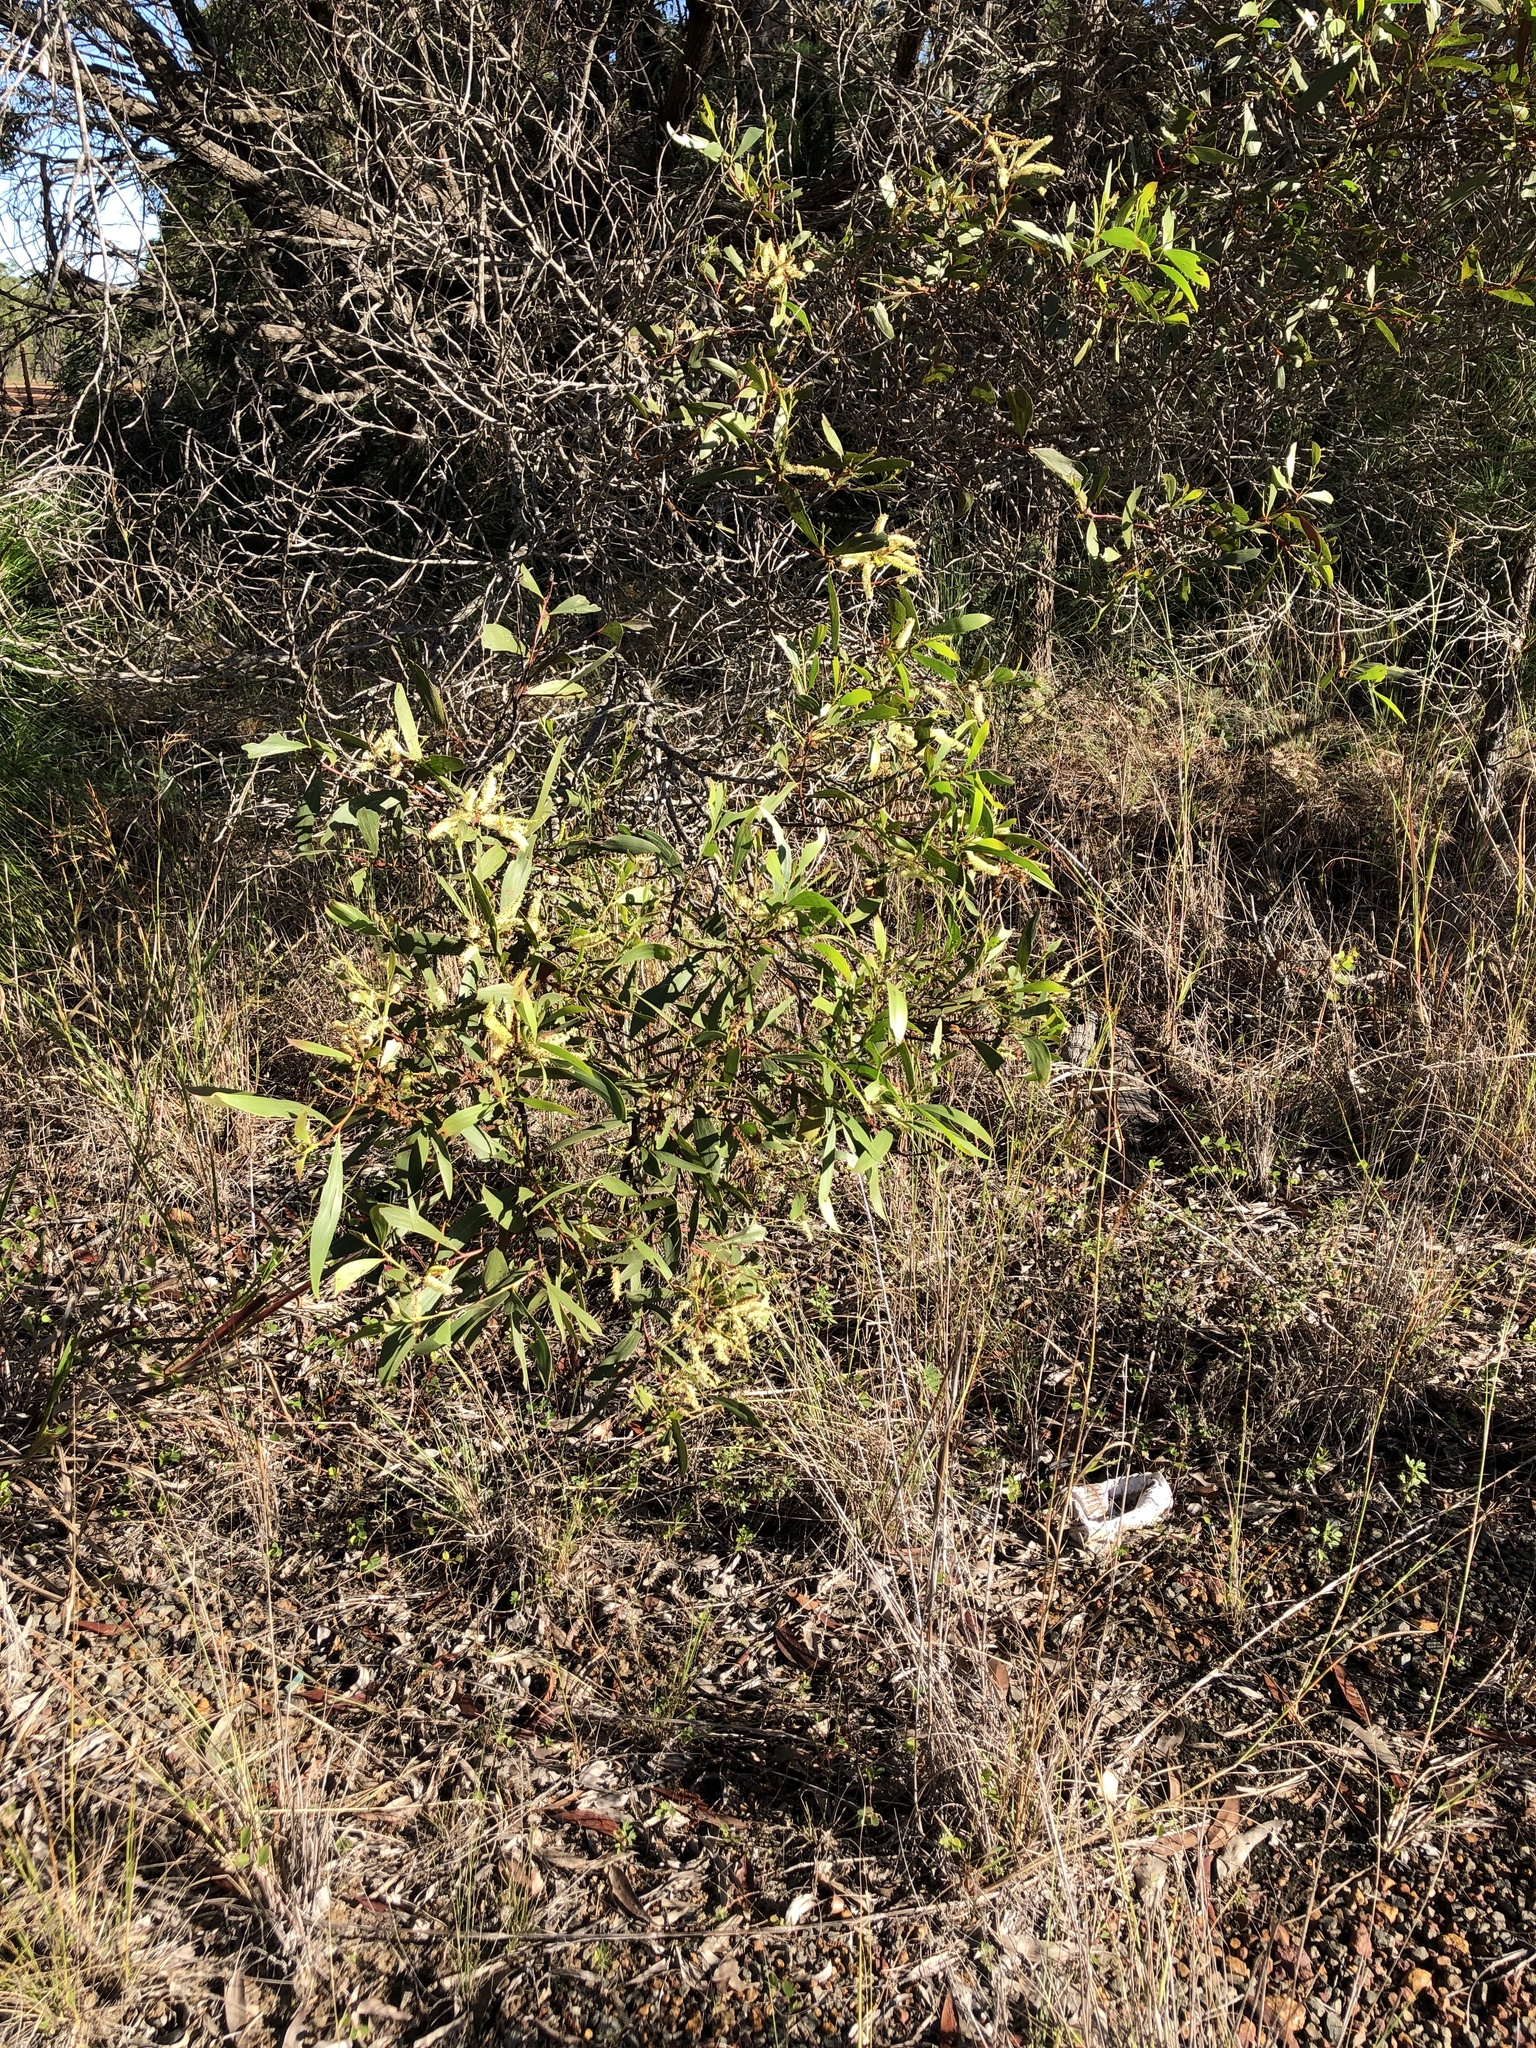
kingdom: Plantae
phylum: Tracheophyta
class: Magnoliopsida
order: Fabales
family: Fabaceae
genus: Acacia
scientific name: Acacia leiocalyx
